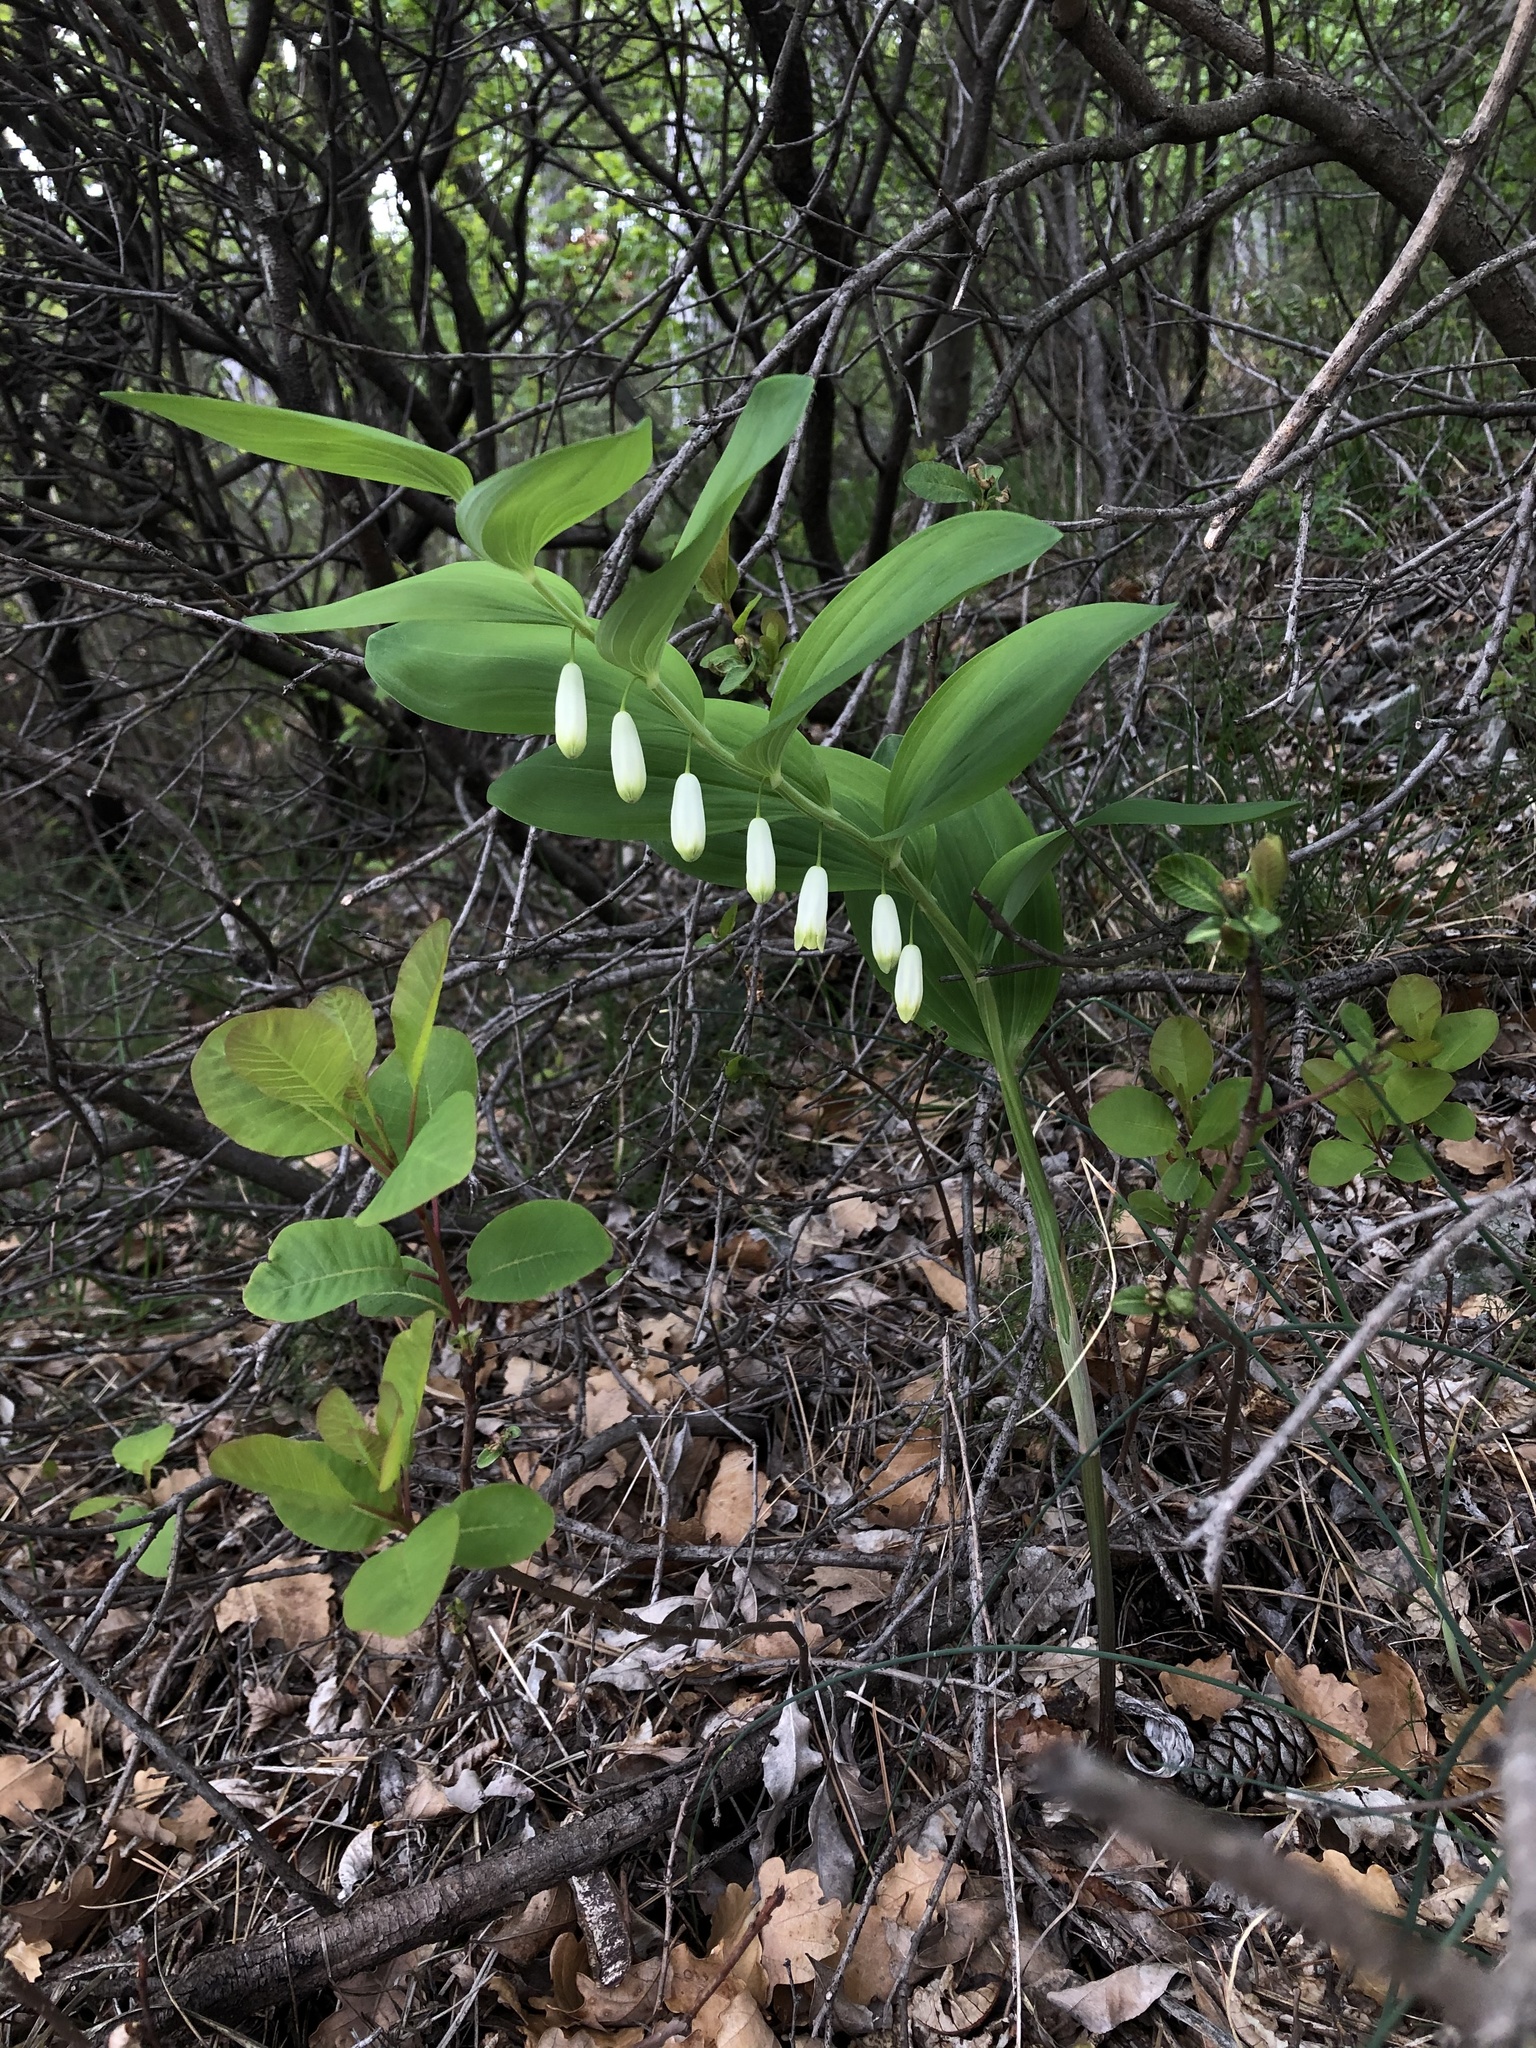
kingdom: Plantae
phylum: Tracheophyta
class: Liliopsida
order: Asparagales
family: Asparagaceae
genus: Polygonatum
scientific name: Polygonatum odoratum
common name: Angular solomon's-seal
